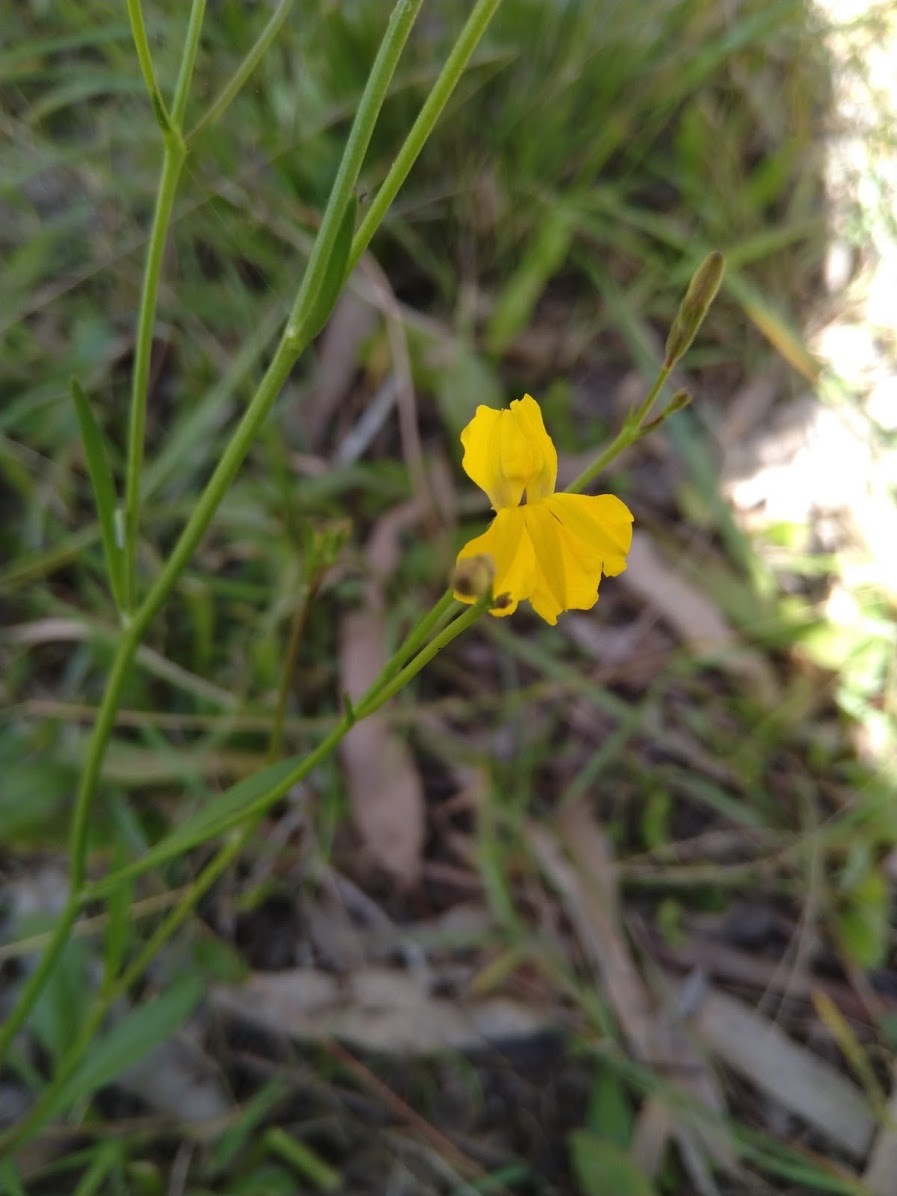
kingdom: Plantae
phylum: Tracheophyta
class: Magnoliopsida
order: Asterales
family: Goodeniaceae
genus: Goodenia
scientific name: Goodenia paniculata
